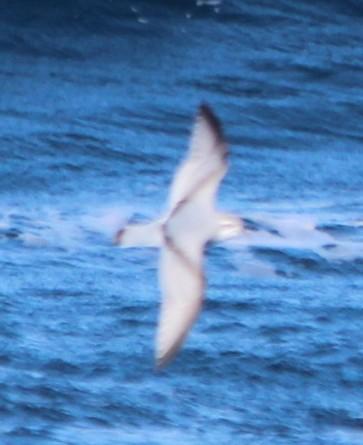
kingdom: Animalia
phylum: Chordata
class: Aves
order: Procellariiformes
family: Procellariidae
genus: Pachyptila
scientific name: Pachyptila desolata
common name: Antarctic prion
